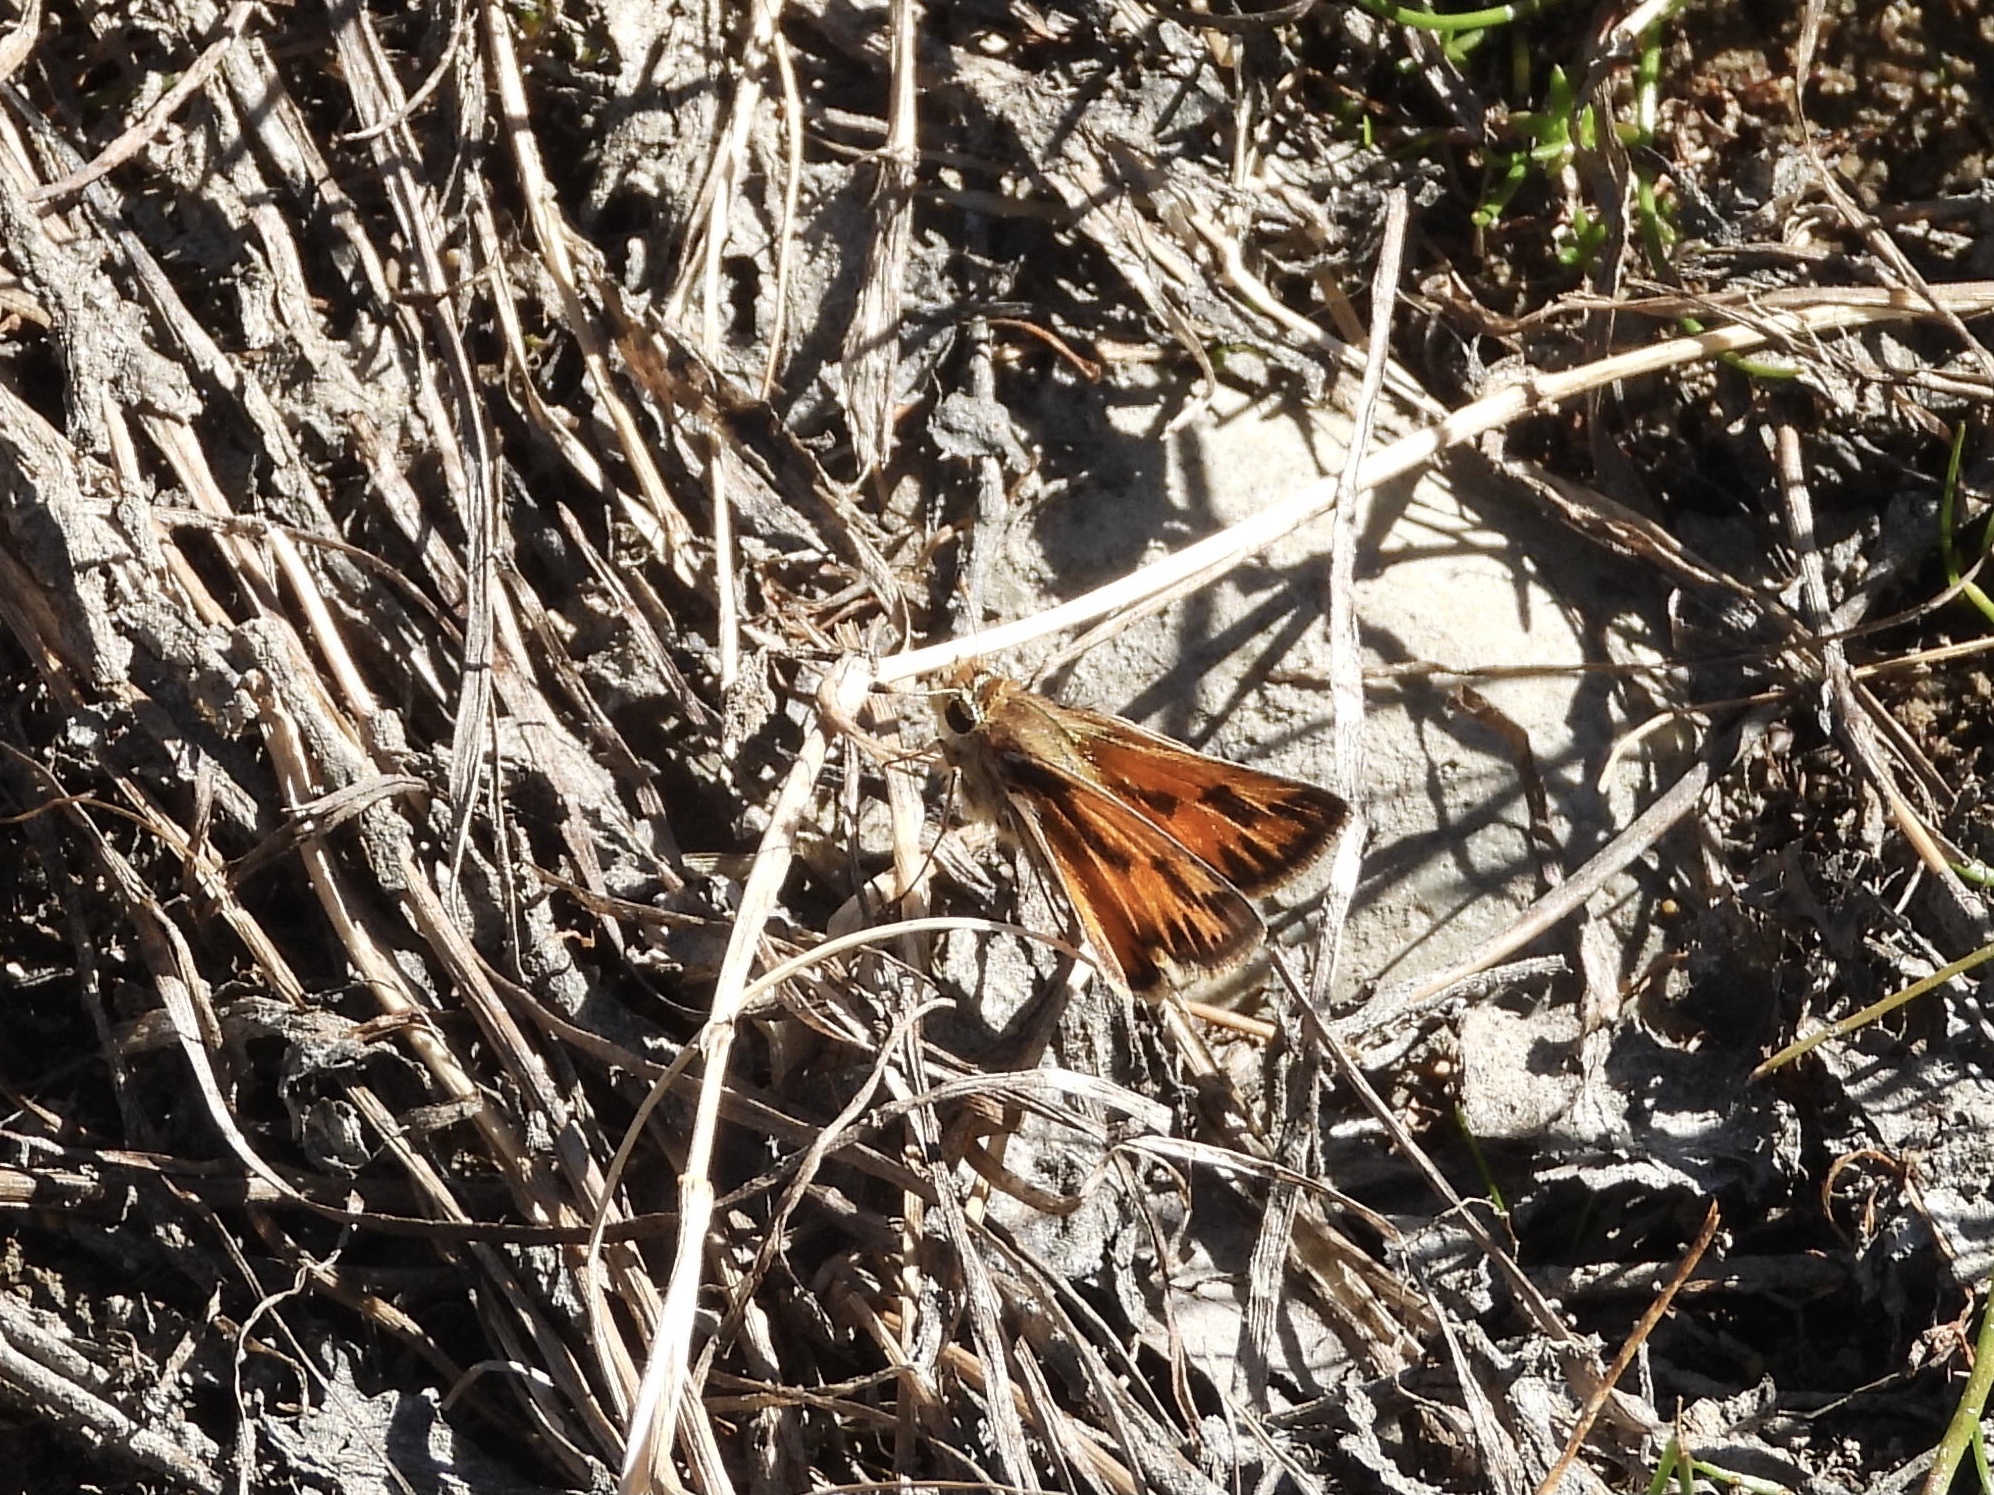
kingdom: Animalia
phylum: Arthropoda
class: Insecta
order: Lepidoptera
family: Hesperiidae
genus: Hylephila
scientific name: Hylephila fasciolata
